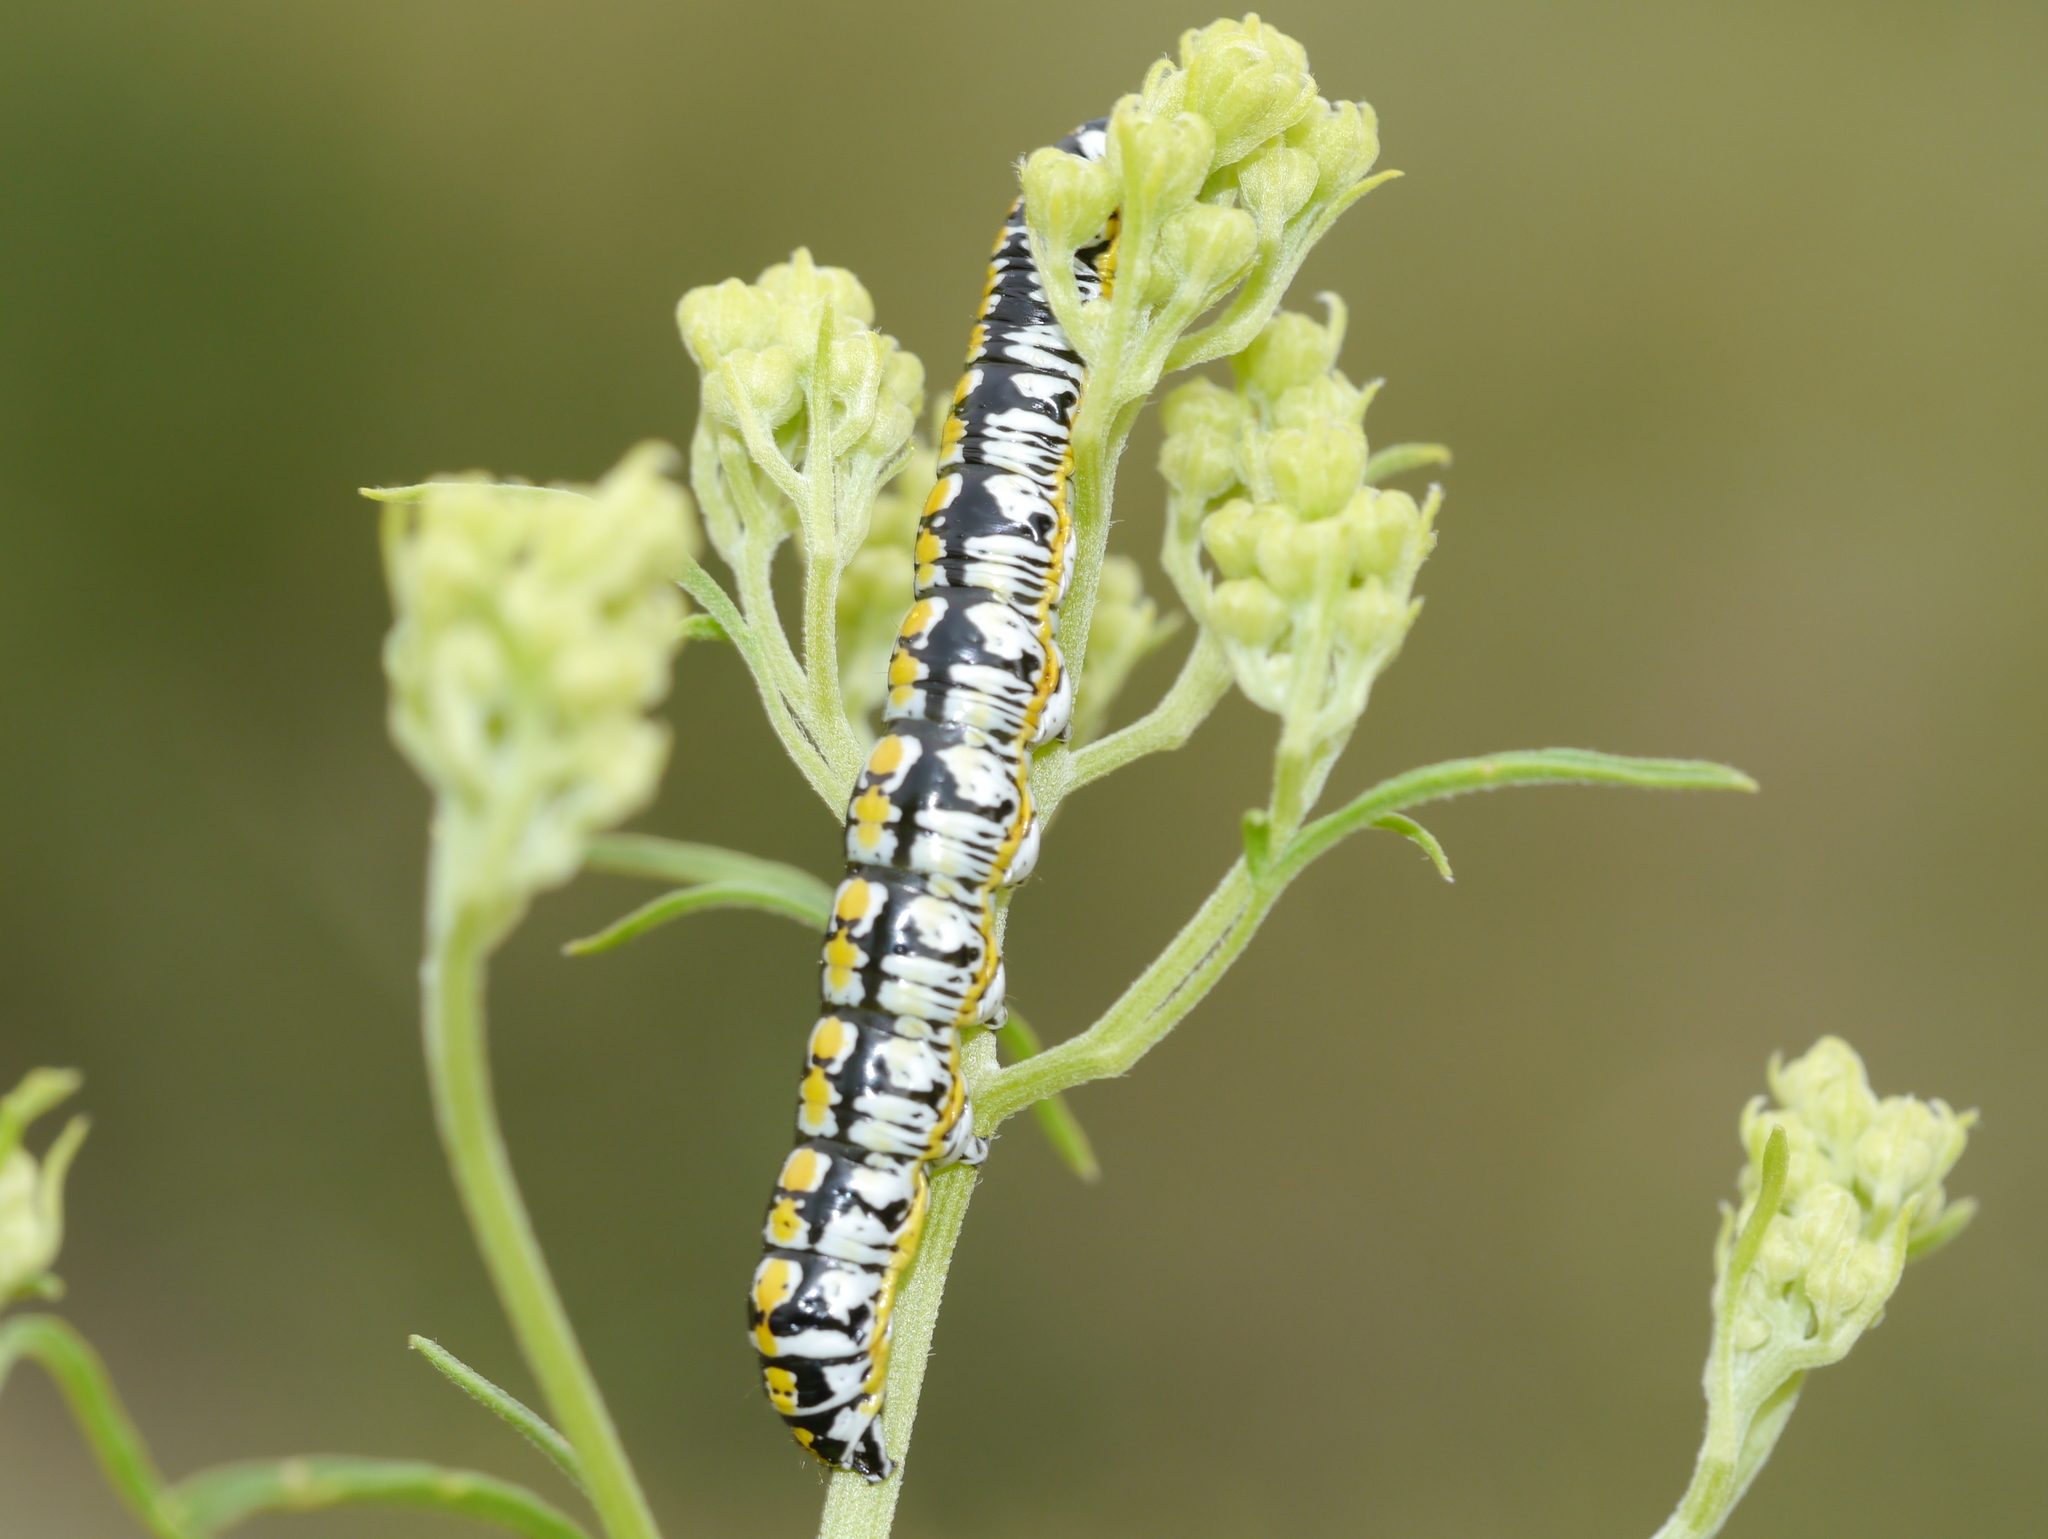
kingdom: Animalia
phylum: Arthropoda
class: Insecta
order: Lepidoptera
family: Noctuidae
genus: Cucullia
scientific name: Cucullia charon
